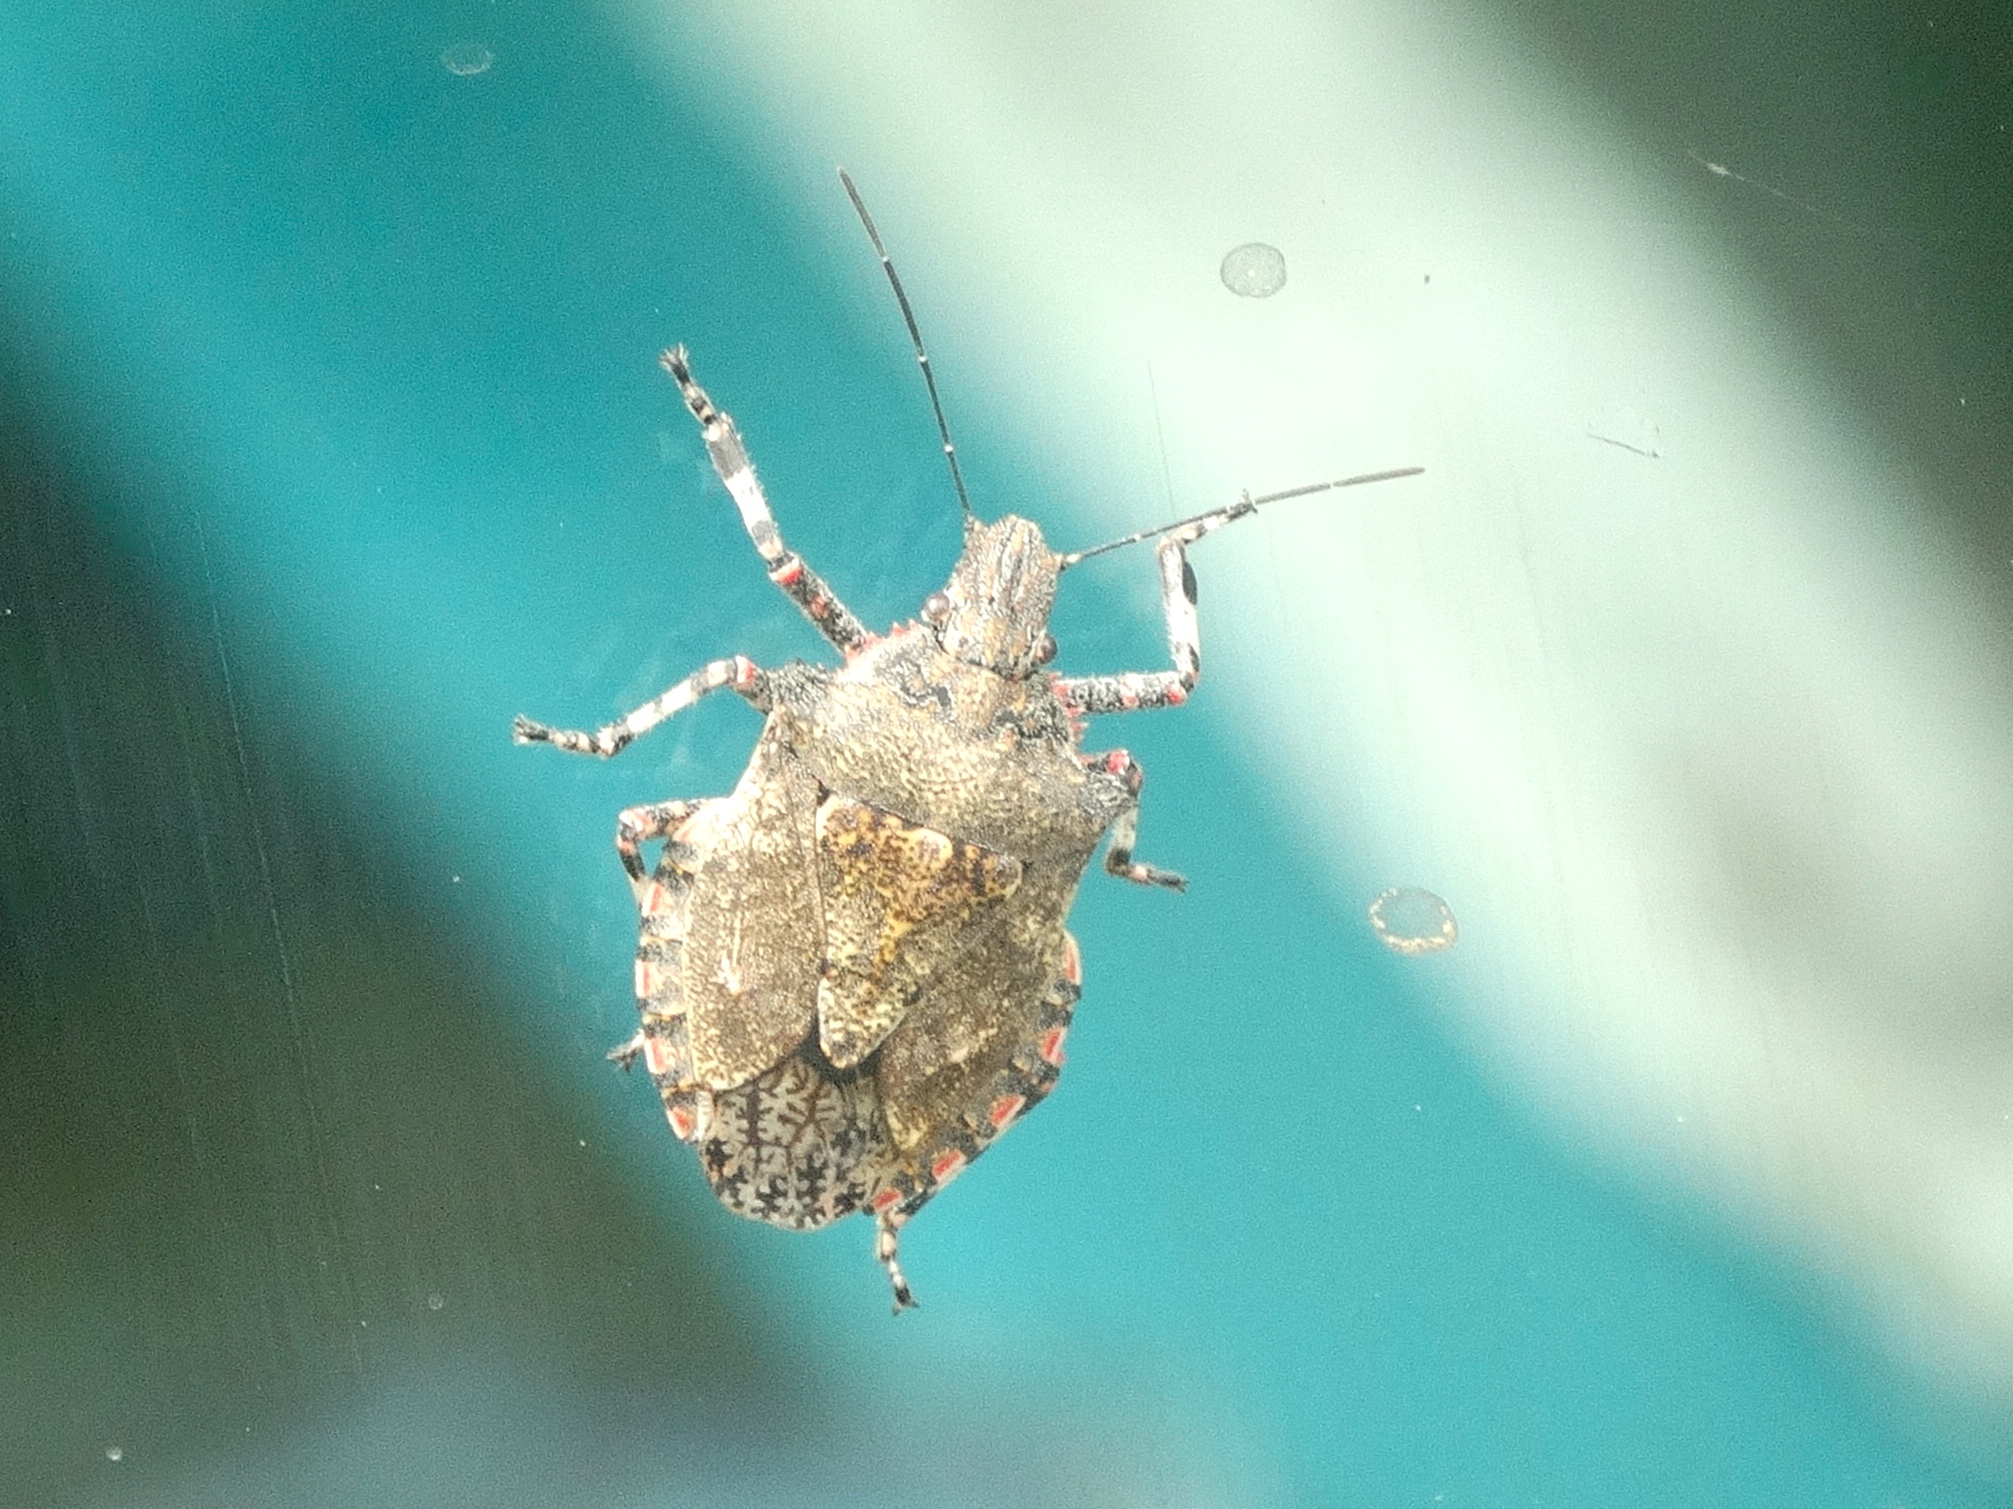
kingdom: Animalia
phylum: Arthropoda
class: Insecta
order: Hemiptera
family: Pentatomidae
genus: Brochymena
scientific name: Brochymena
